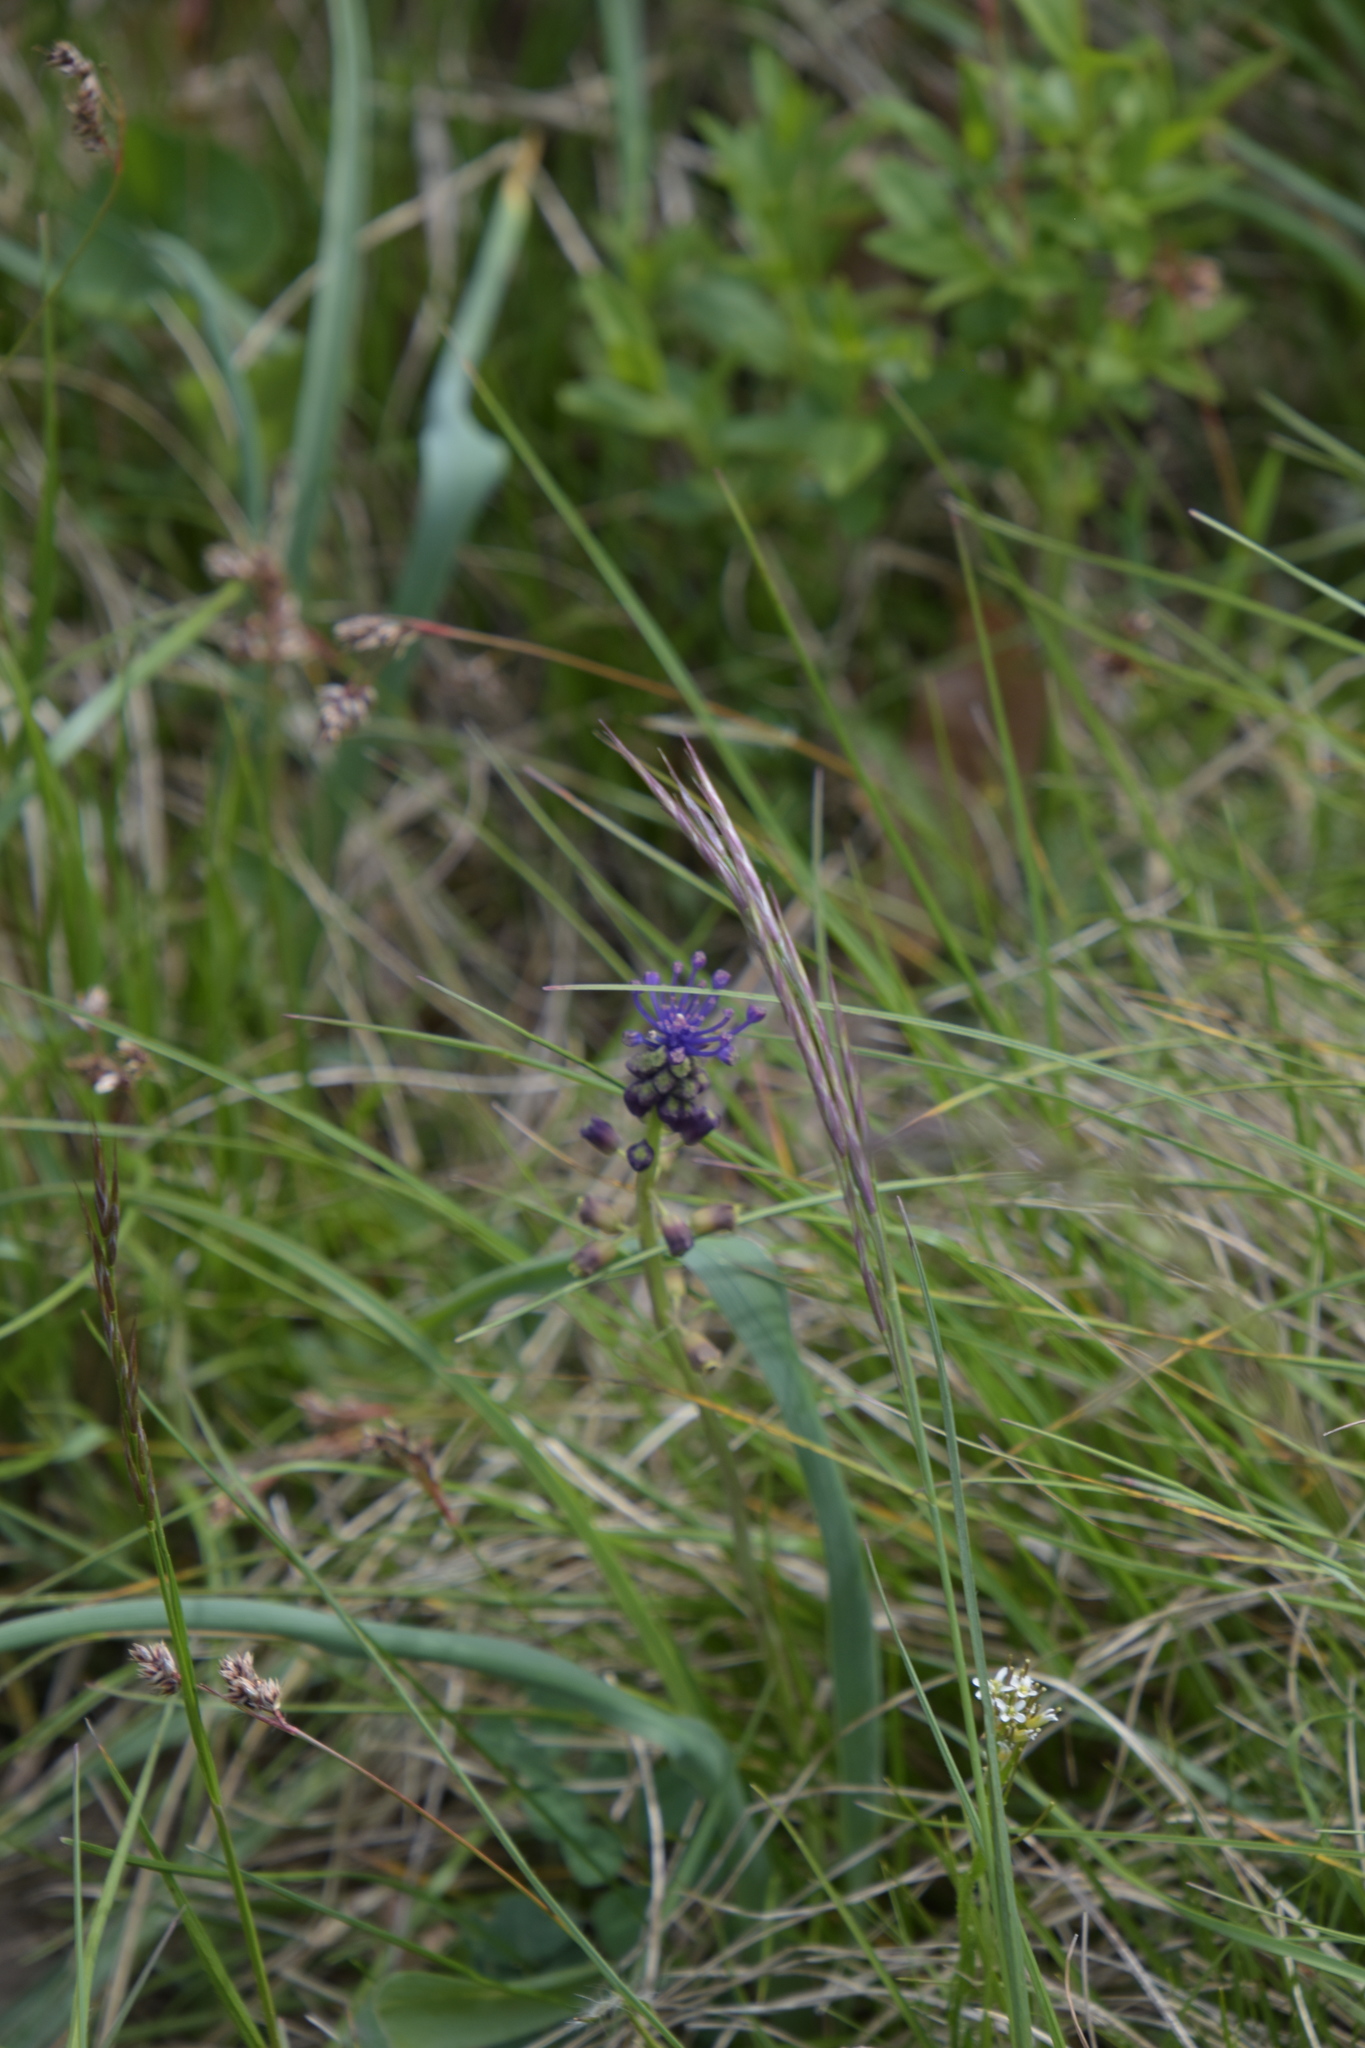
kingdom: Plantae
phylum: Tracheophyta
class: Liliopsida
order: Asparagales
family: Asparagaceae
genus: Muscari
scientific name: Muscari comosum
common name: Tassel hyacinth
